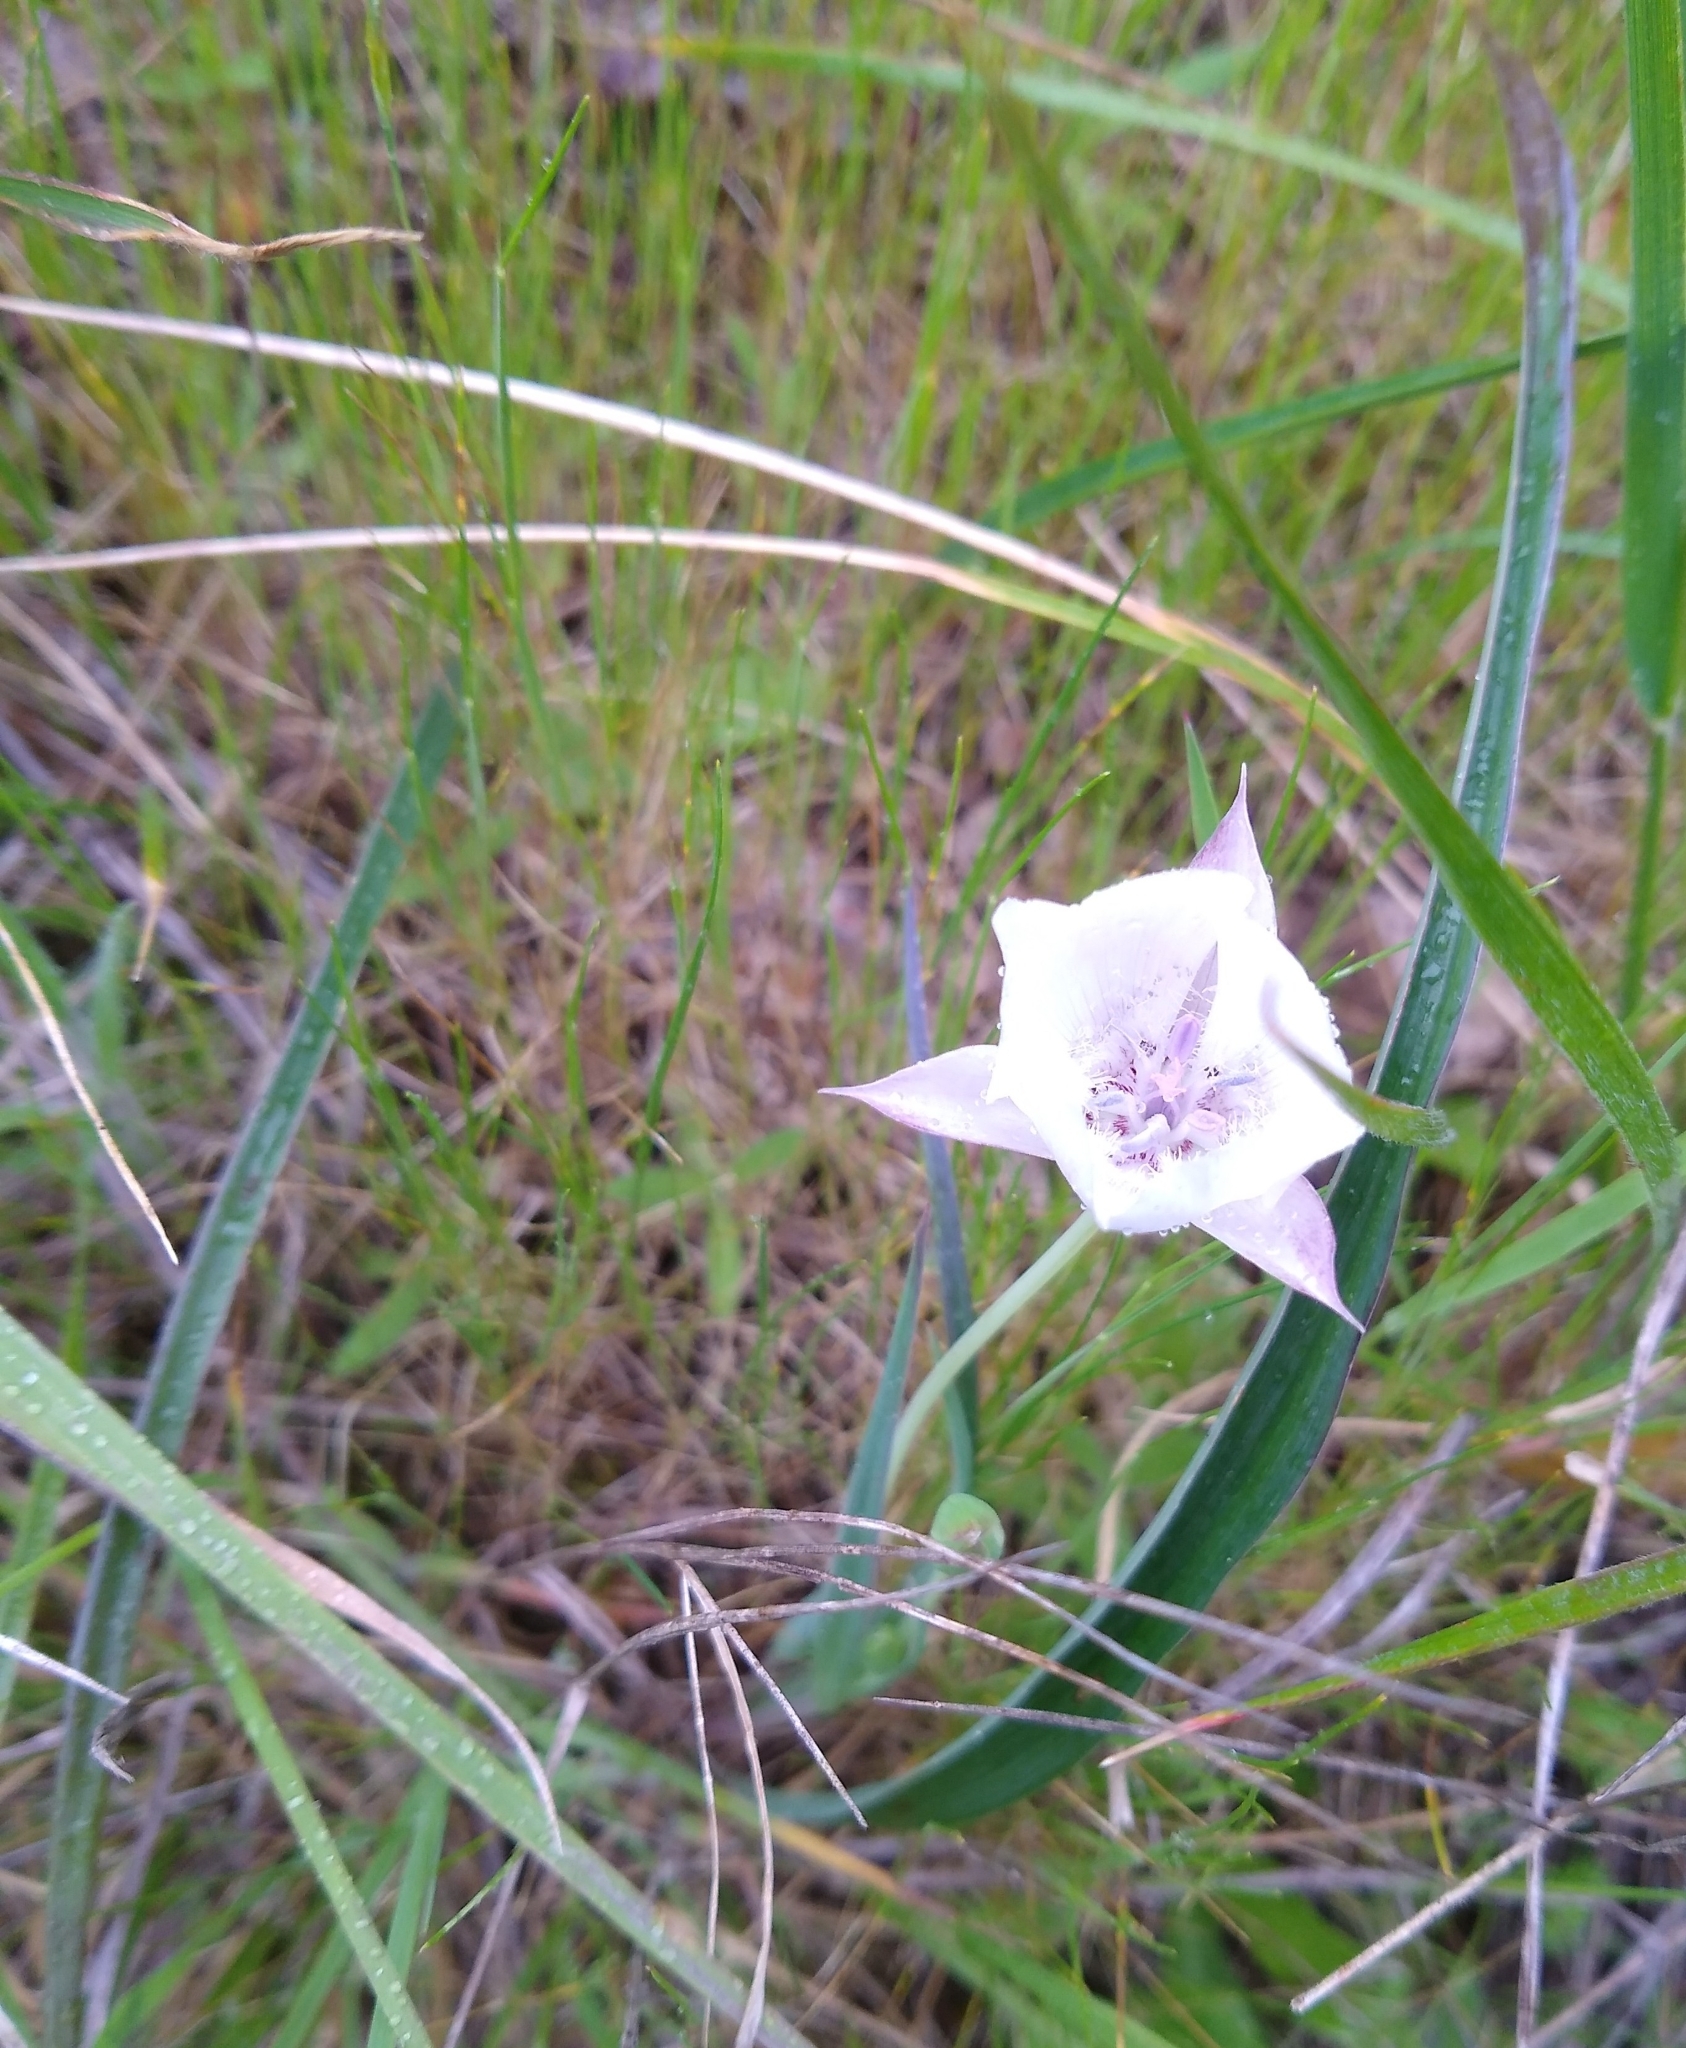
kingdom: Plantae
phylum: Tracheophyta
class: Liliopsida
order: Liliales
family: Liliaceae
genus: Calochortus
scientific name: Calochortus umbellatus
